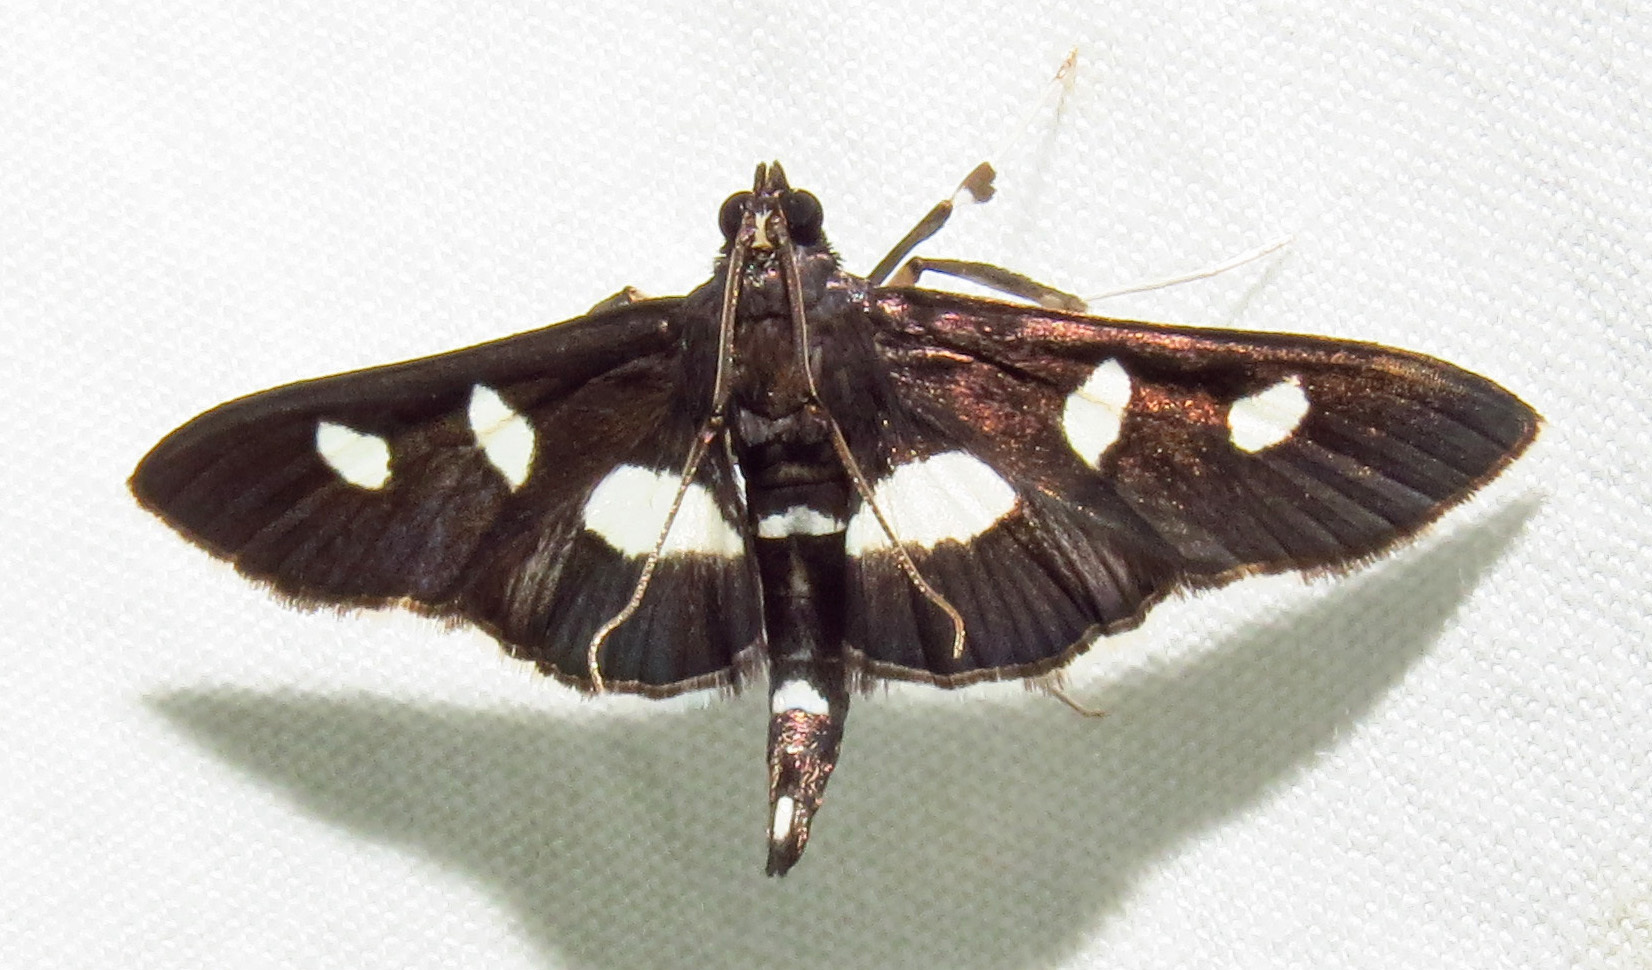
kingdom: Animalia
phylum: Arthropoda
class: Insecta
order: Lepidoptera
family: Crambidae
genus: Desmia
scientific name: Desmia
